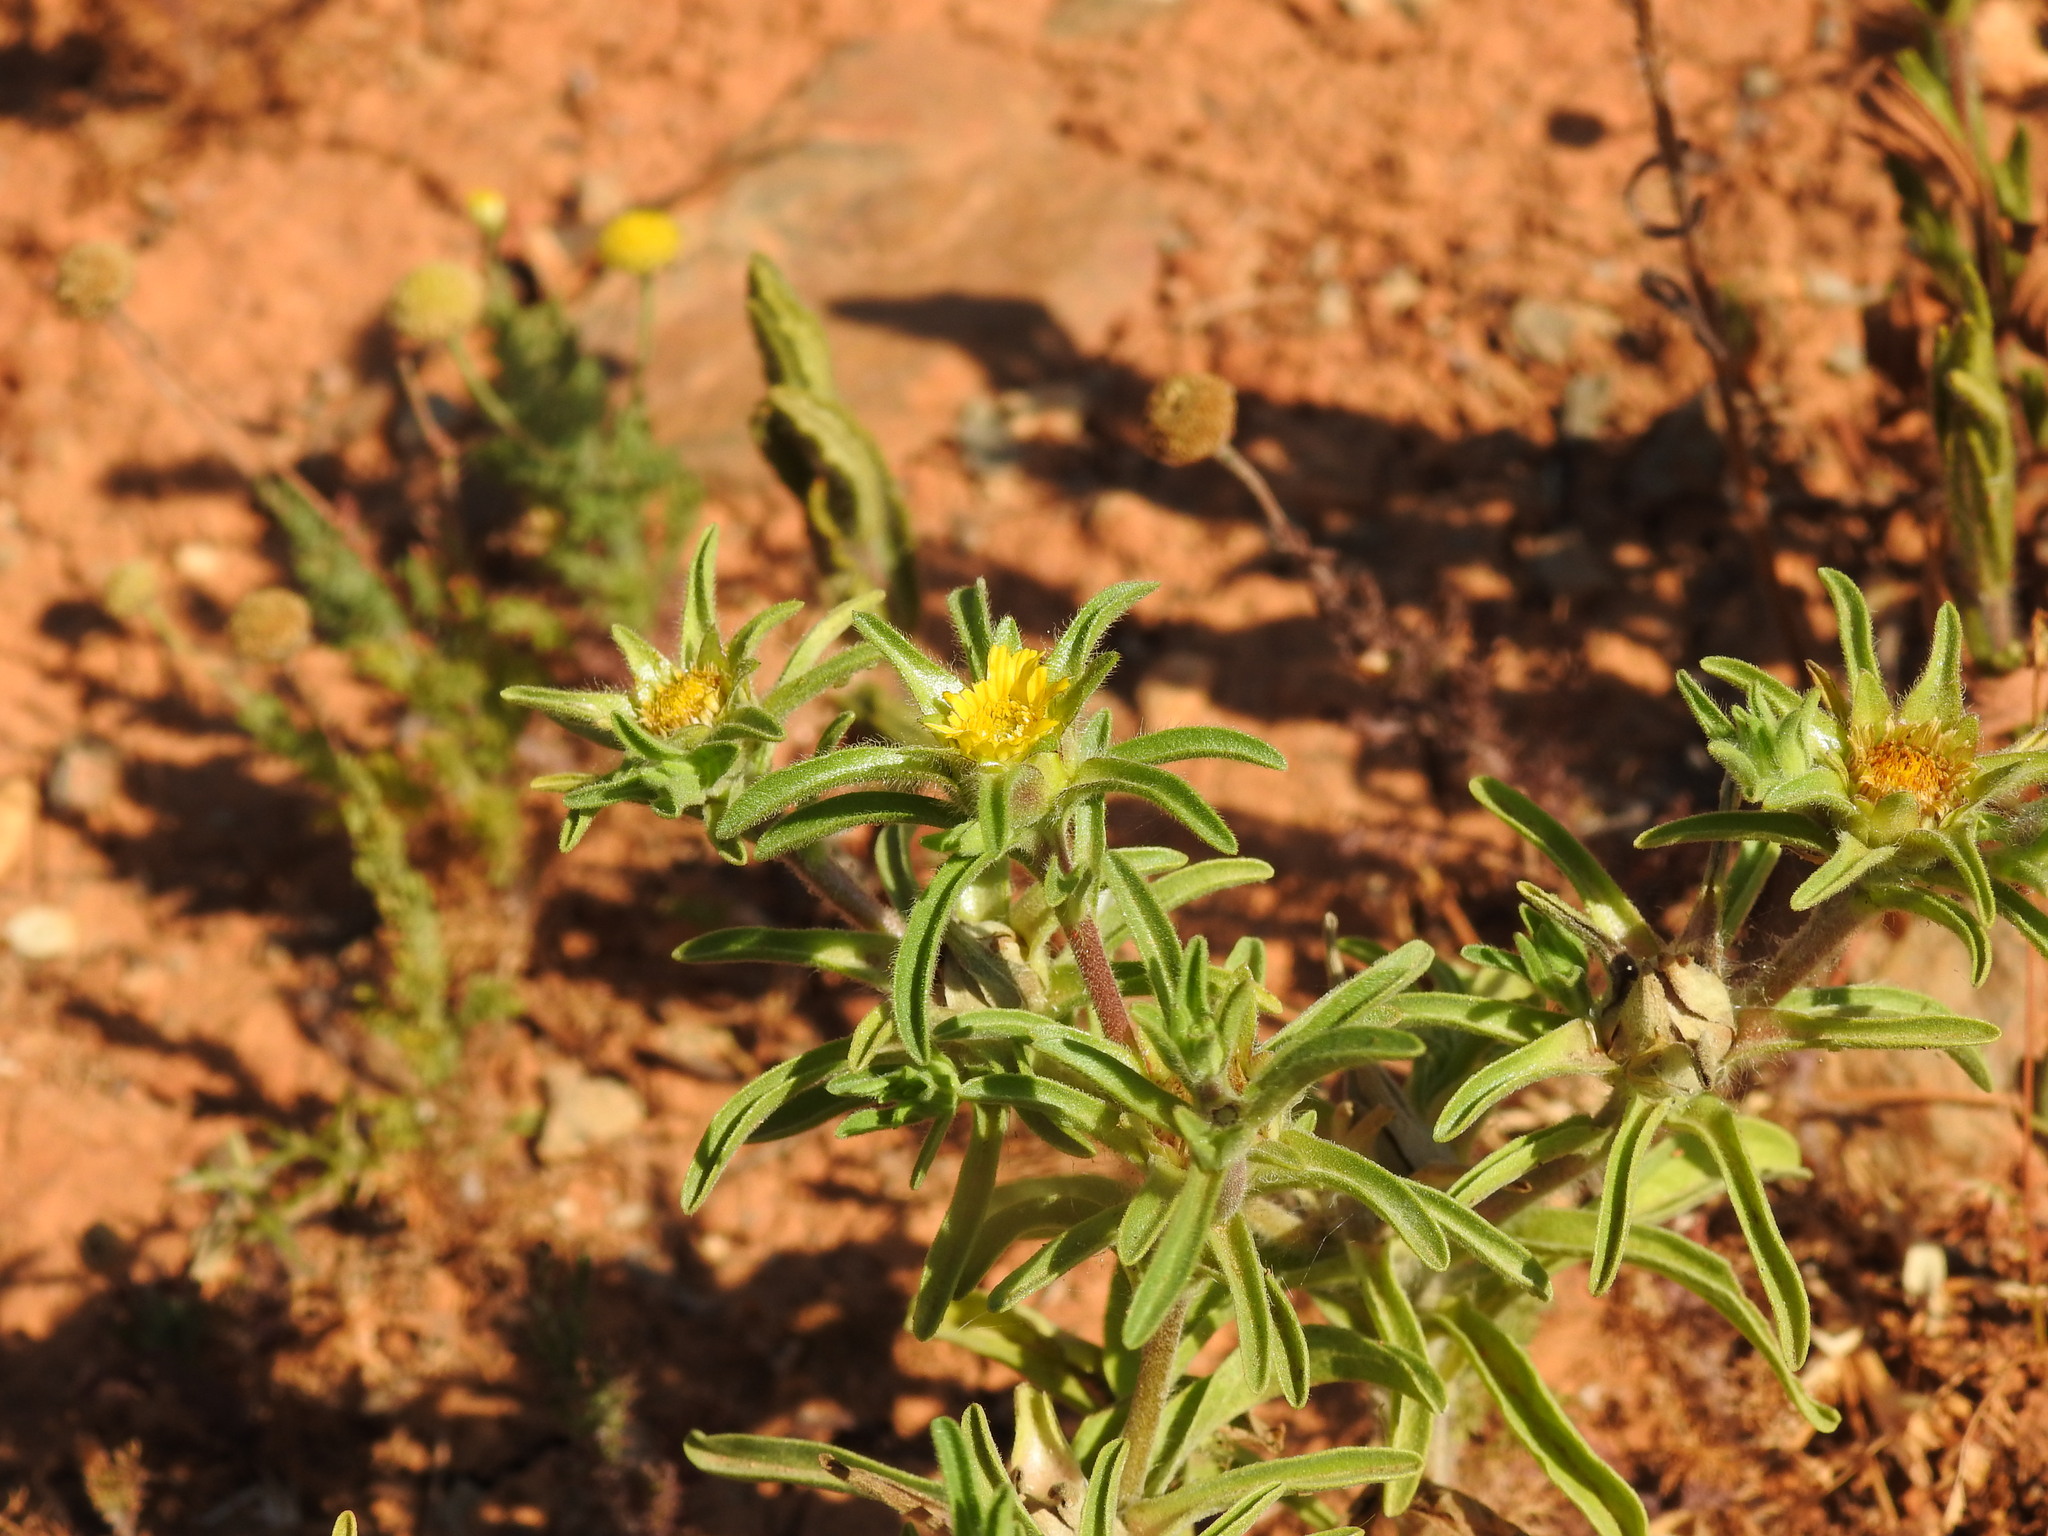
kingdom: Plantae
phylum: Tracheophyta
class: Magnoliopsida
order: Asterales
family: Asteraceae
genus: Asteriscus
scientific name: Asteriscus aquaticus
